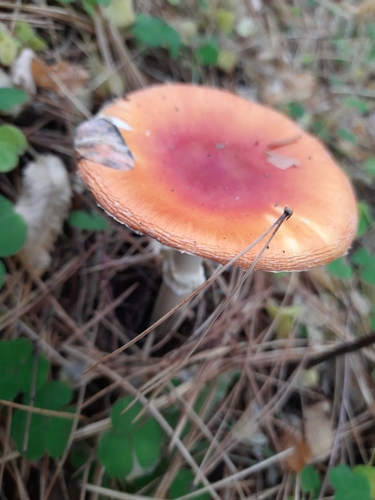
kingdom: Fungi
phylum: Basidiomycota
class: Agaricomycetes
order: Agaricales
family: Amanitaceae
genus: Amanita
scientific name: Amanita muscaria
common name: Fly agaric
